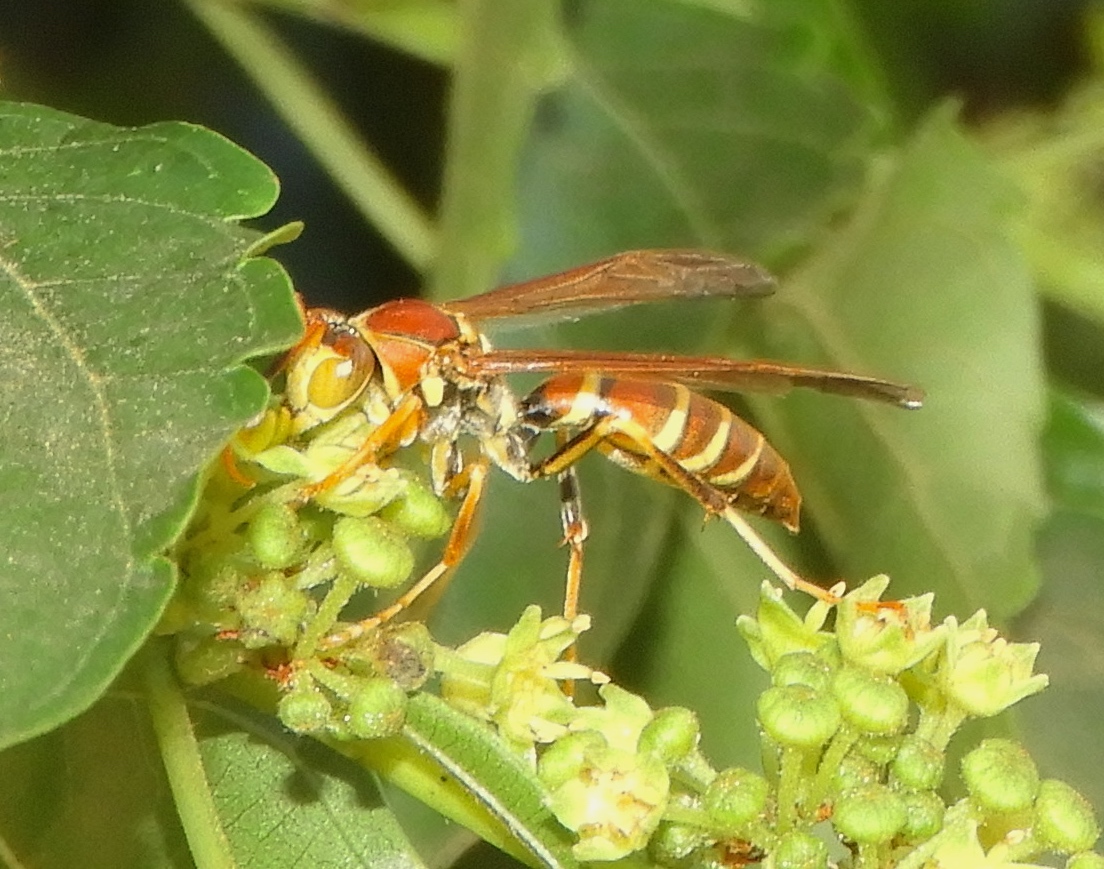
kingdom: Animalia
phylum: Arthropoda
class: Insecta
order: Hymenoptera
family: Eumenidae
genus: Polistes
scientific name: Polistes instabilis
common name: Unstable paper wasp
